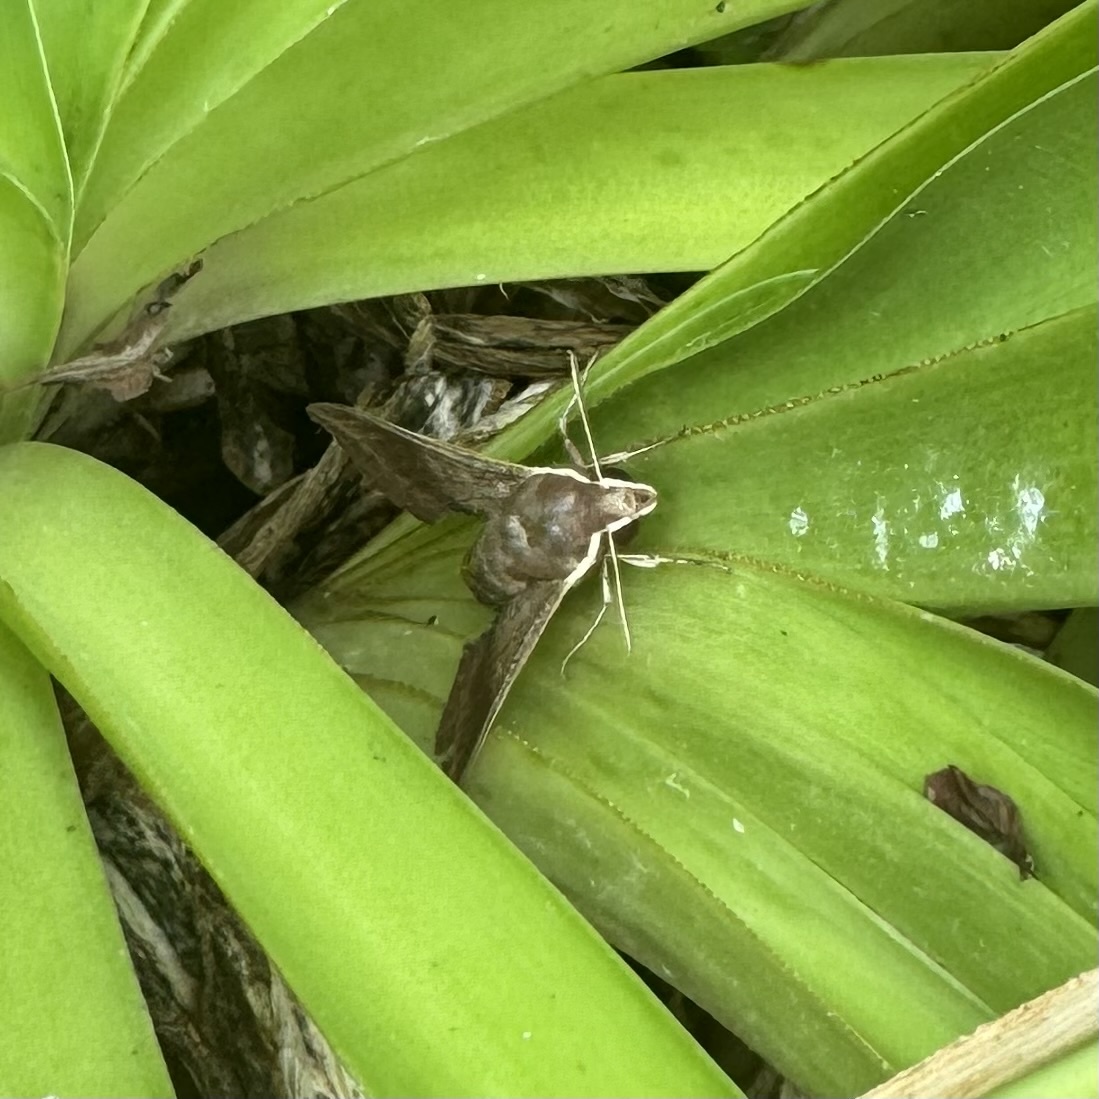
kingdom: Animalia
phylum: Arthropoda
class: Insecta
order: Lepidoptera
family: Sphingidae
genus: Hippotion
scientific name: Hippotion scrofa
